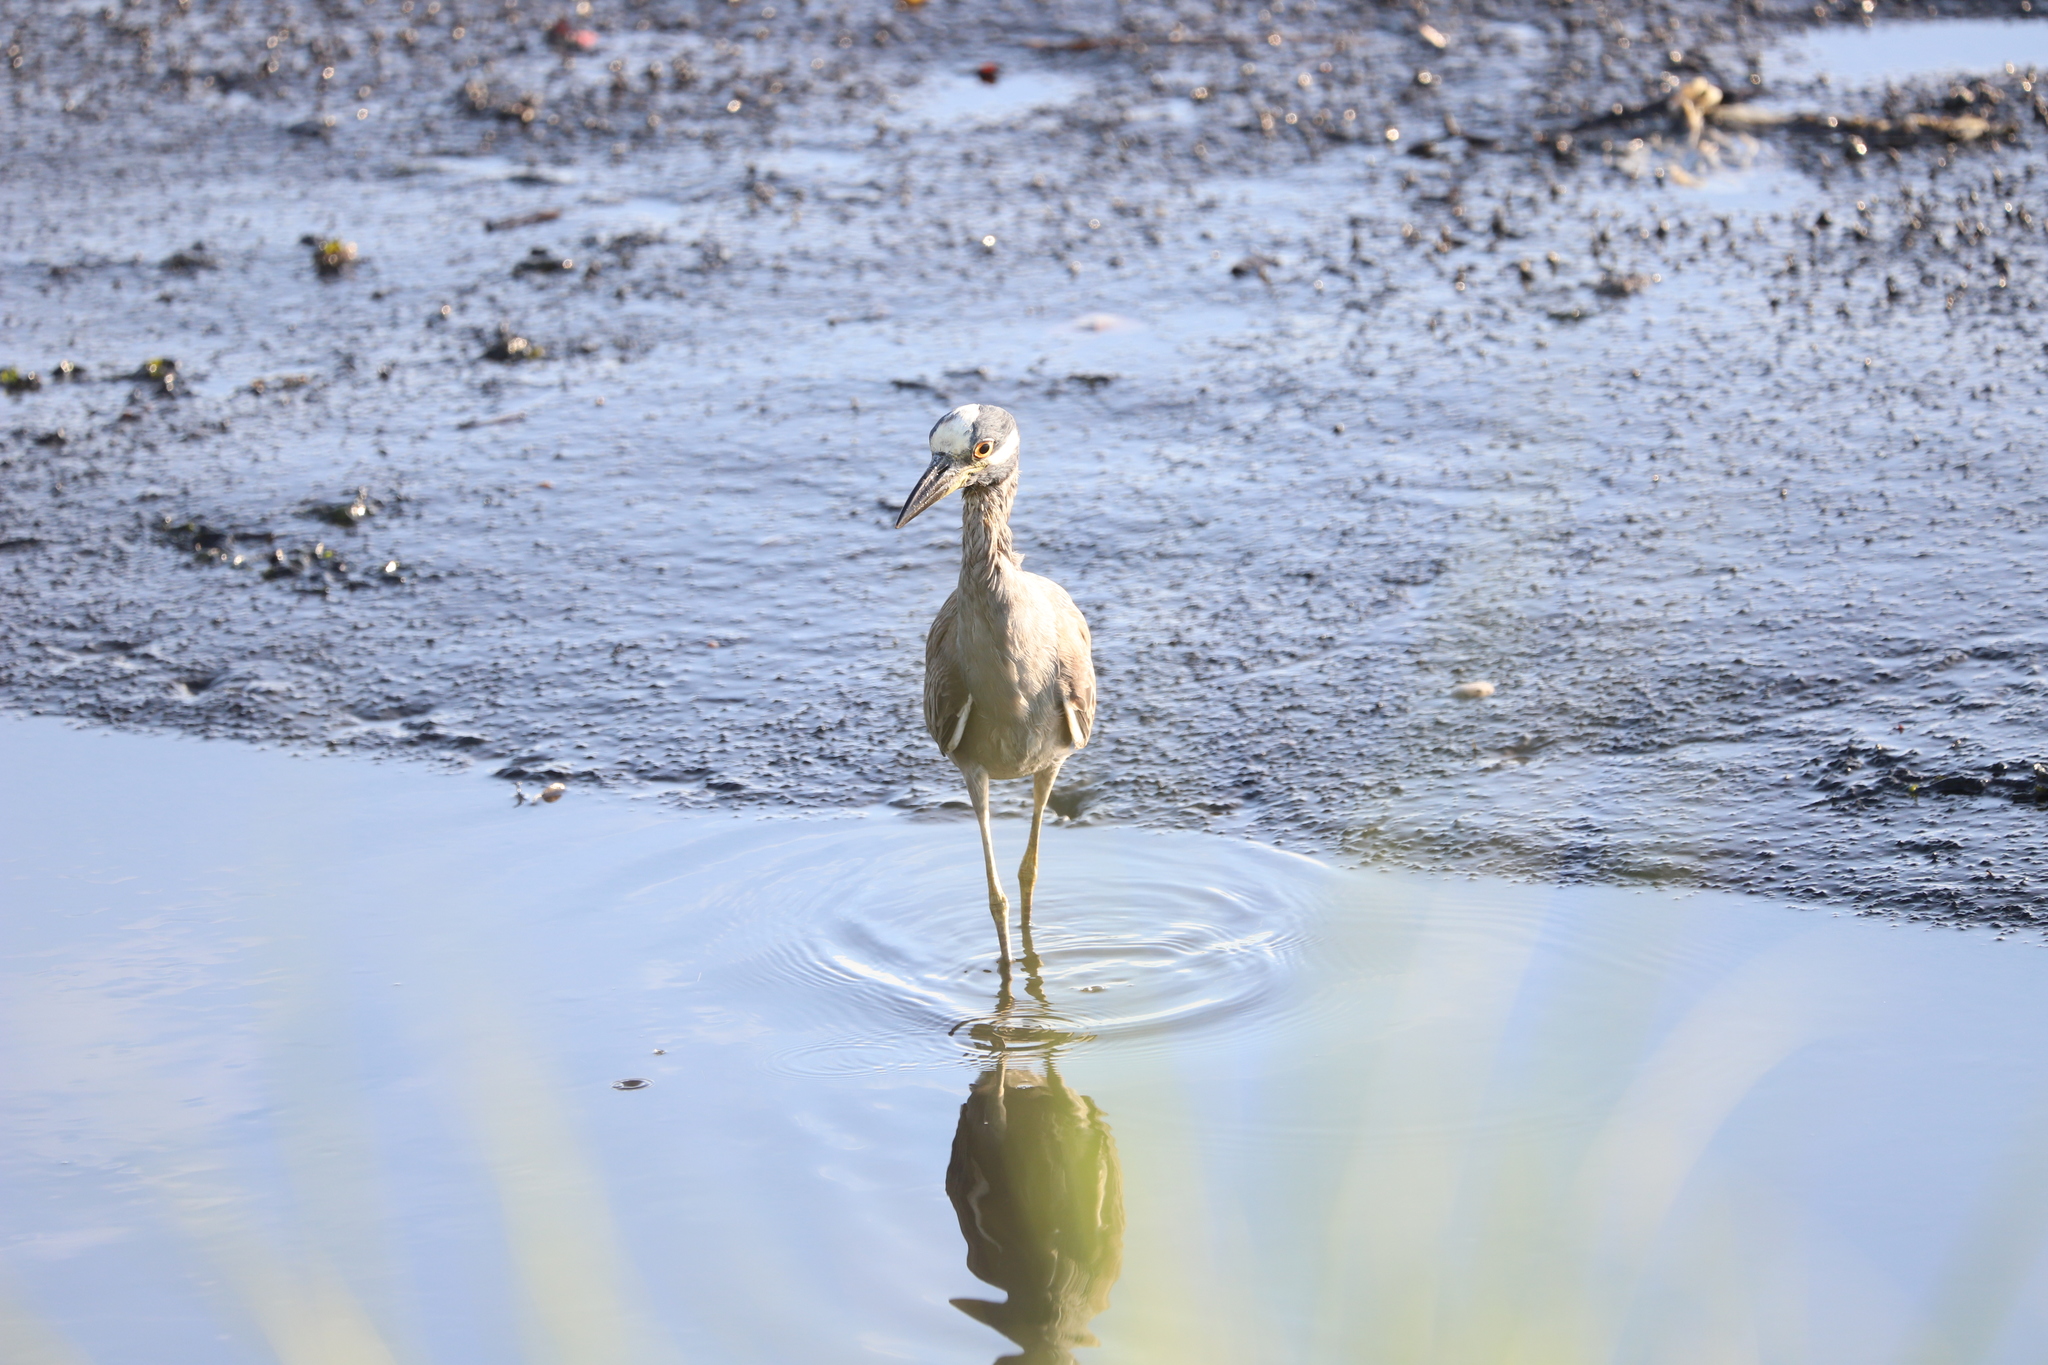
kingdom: Animalia
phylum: Chordata
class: Aves
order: Pelecaniformes
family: Ardeidae
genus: Nyctanassa
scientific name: Nyctanassa violacea
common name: Yellow-crowned night heron
